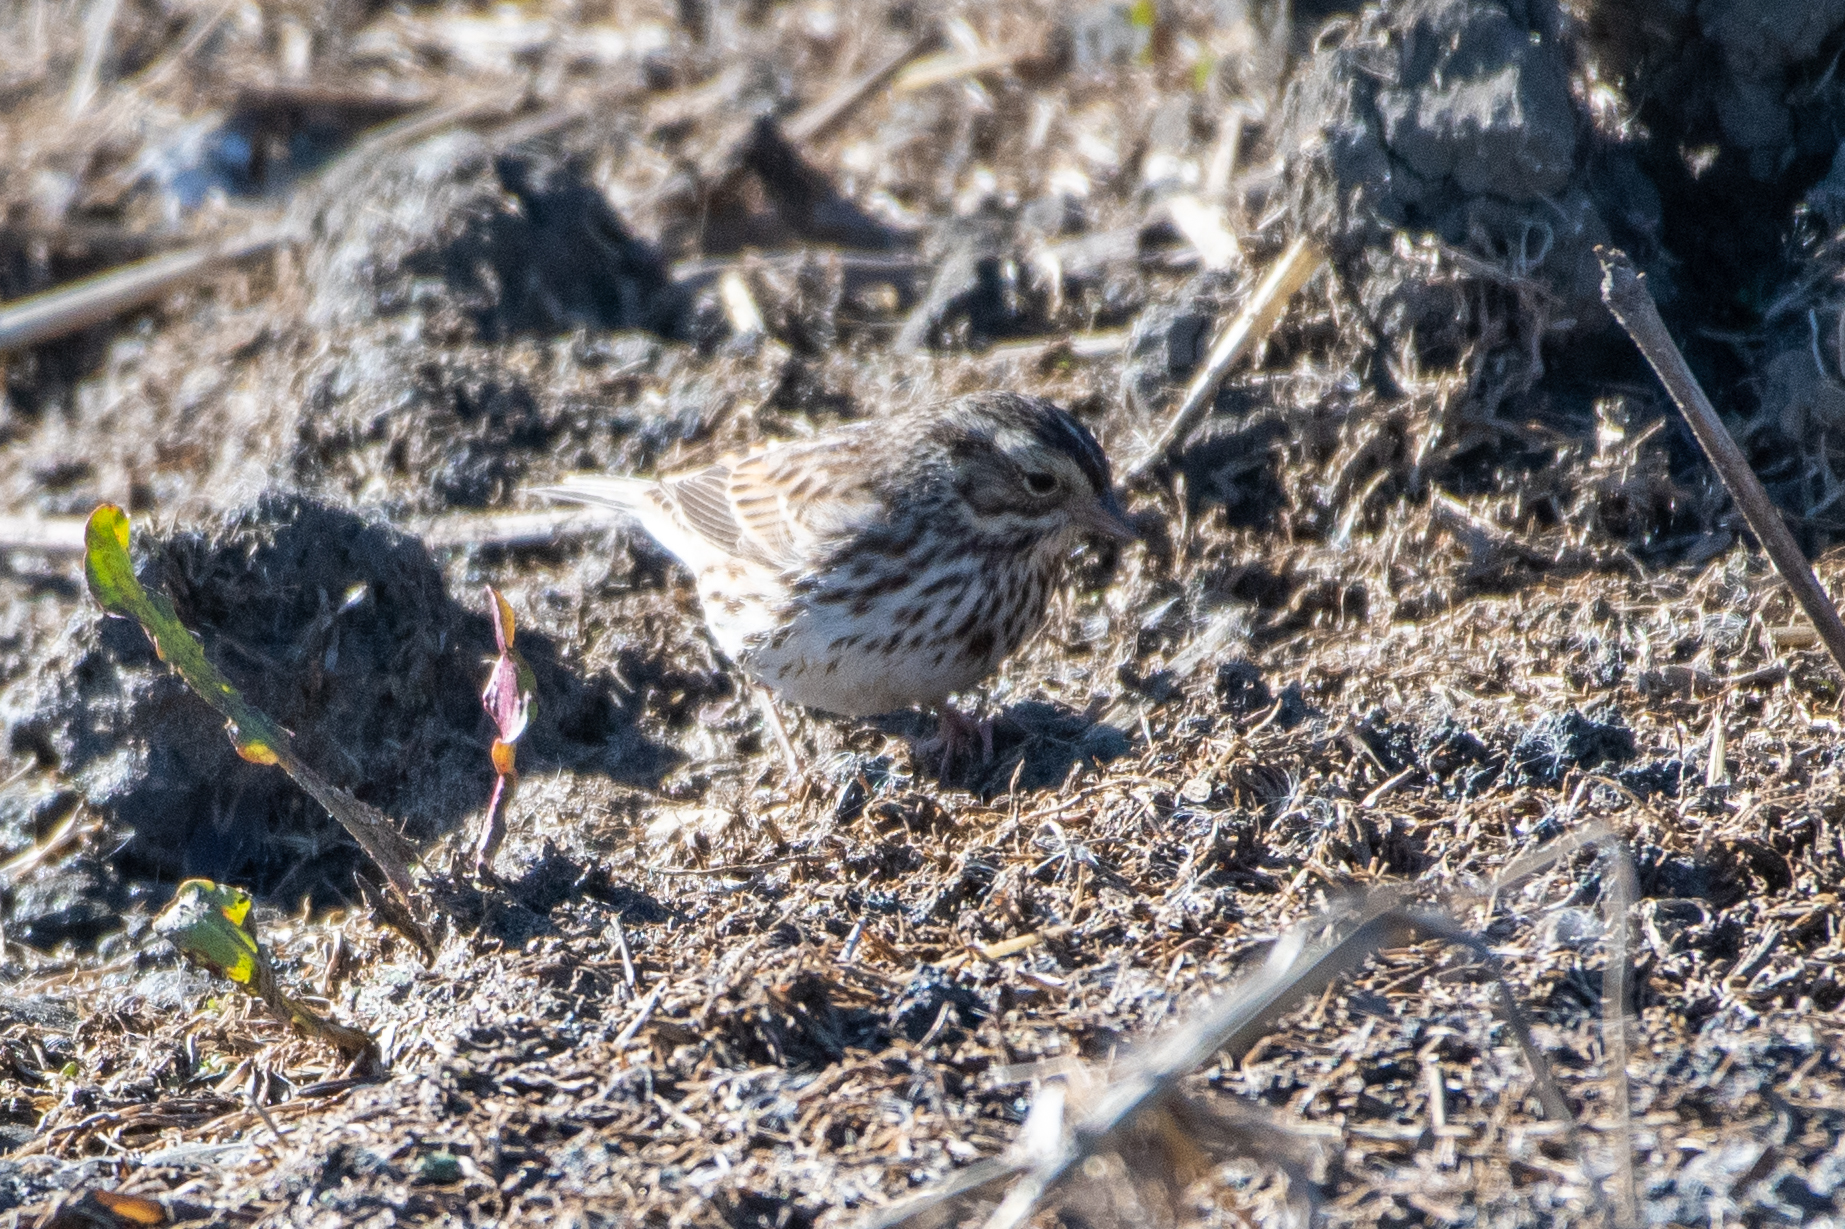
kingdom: Animalia
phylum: Chordata
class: Aves
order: Passeriformes
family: Passerellidae
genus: Passerculus
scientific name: Passerculus sandwichensis
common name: Savannah sparrow
